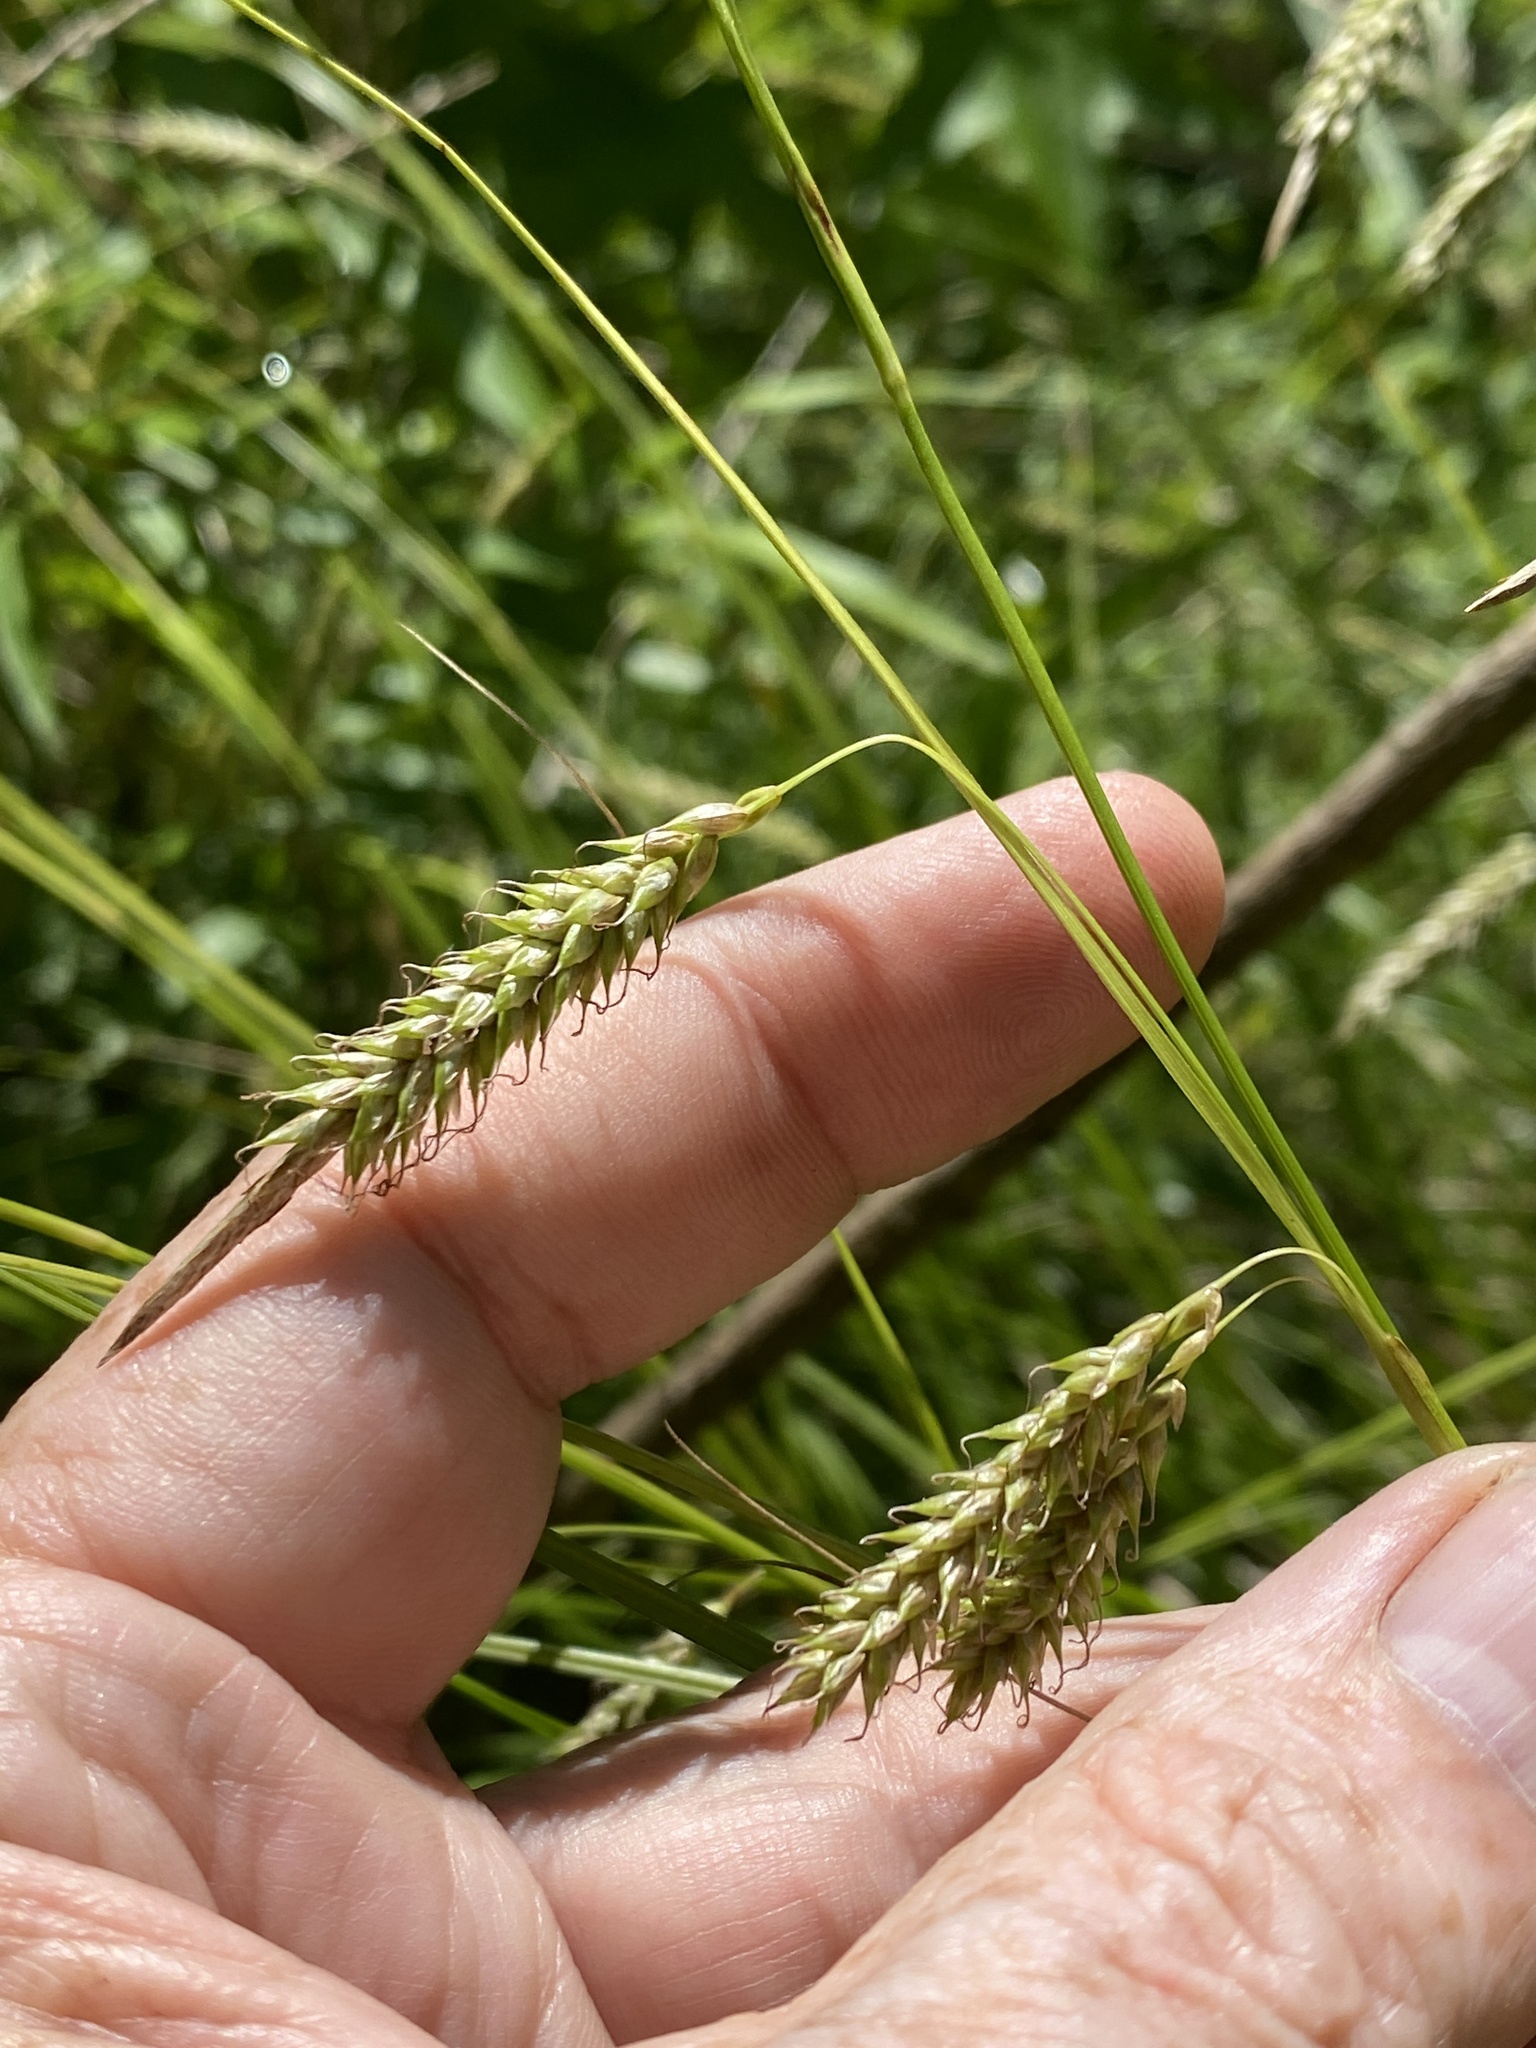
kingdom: Plantae
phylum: Tracheophyta
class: Liliopsida
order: Poales
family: Cyperaceae
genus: Carex
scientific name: Carex cherokeensis
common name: Cherokee sedge
